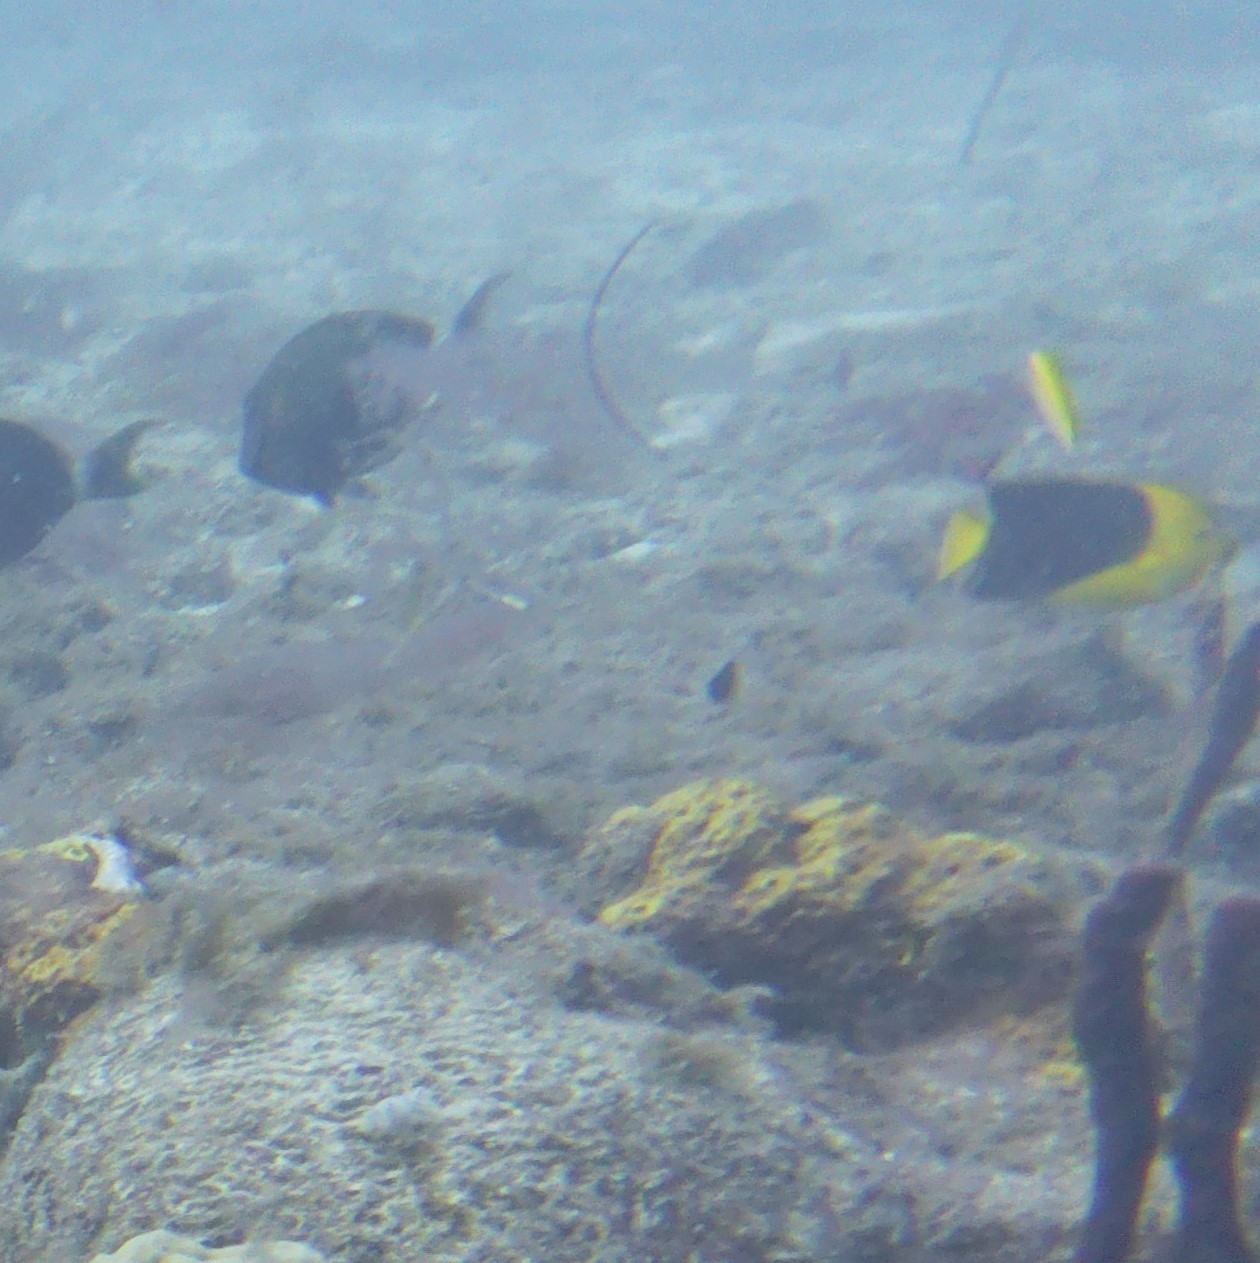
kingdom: Animalia
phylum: Chordata
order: Perciformes
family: Pomacanthidae
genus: Holacanthus
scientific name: Holacanthus tricolor
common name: Rock beauty
